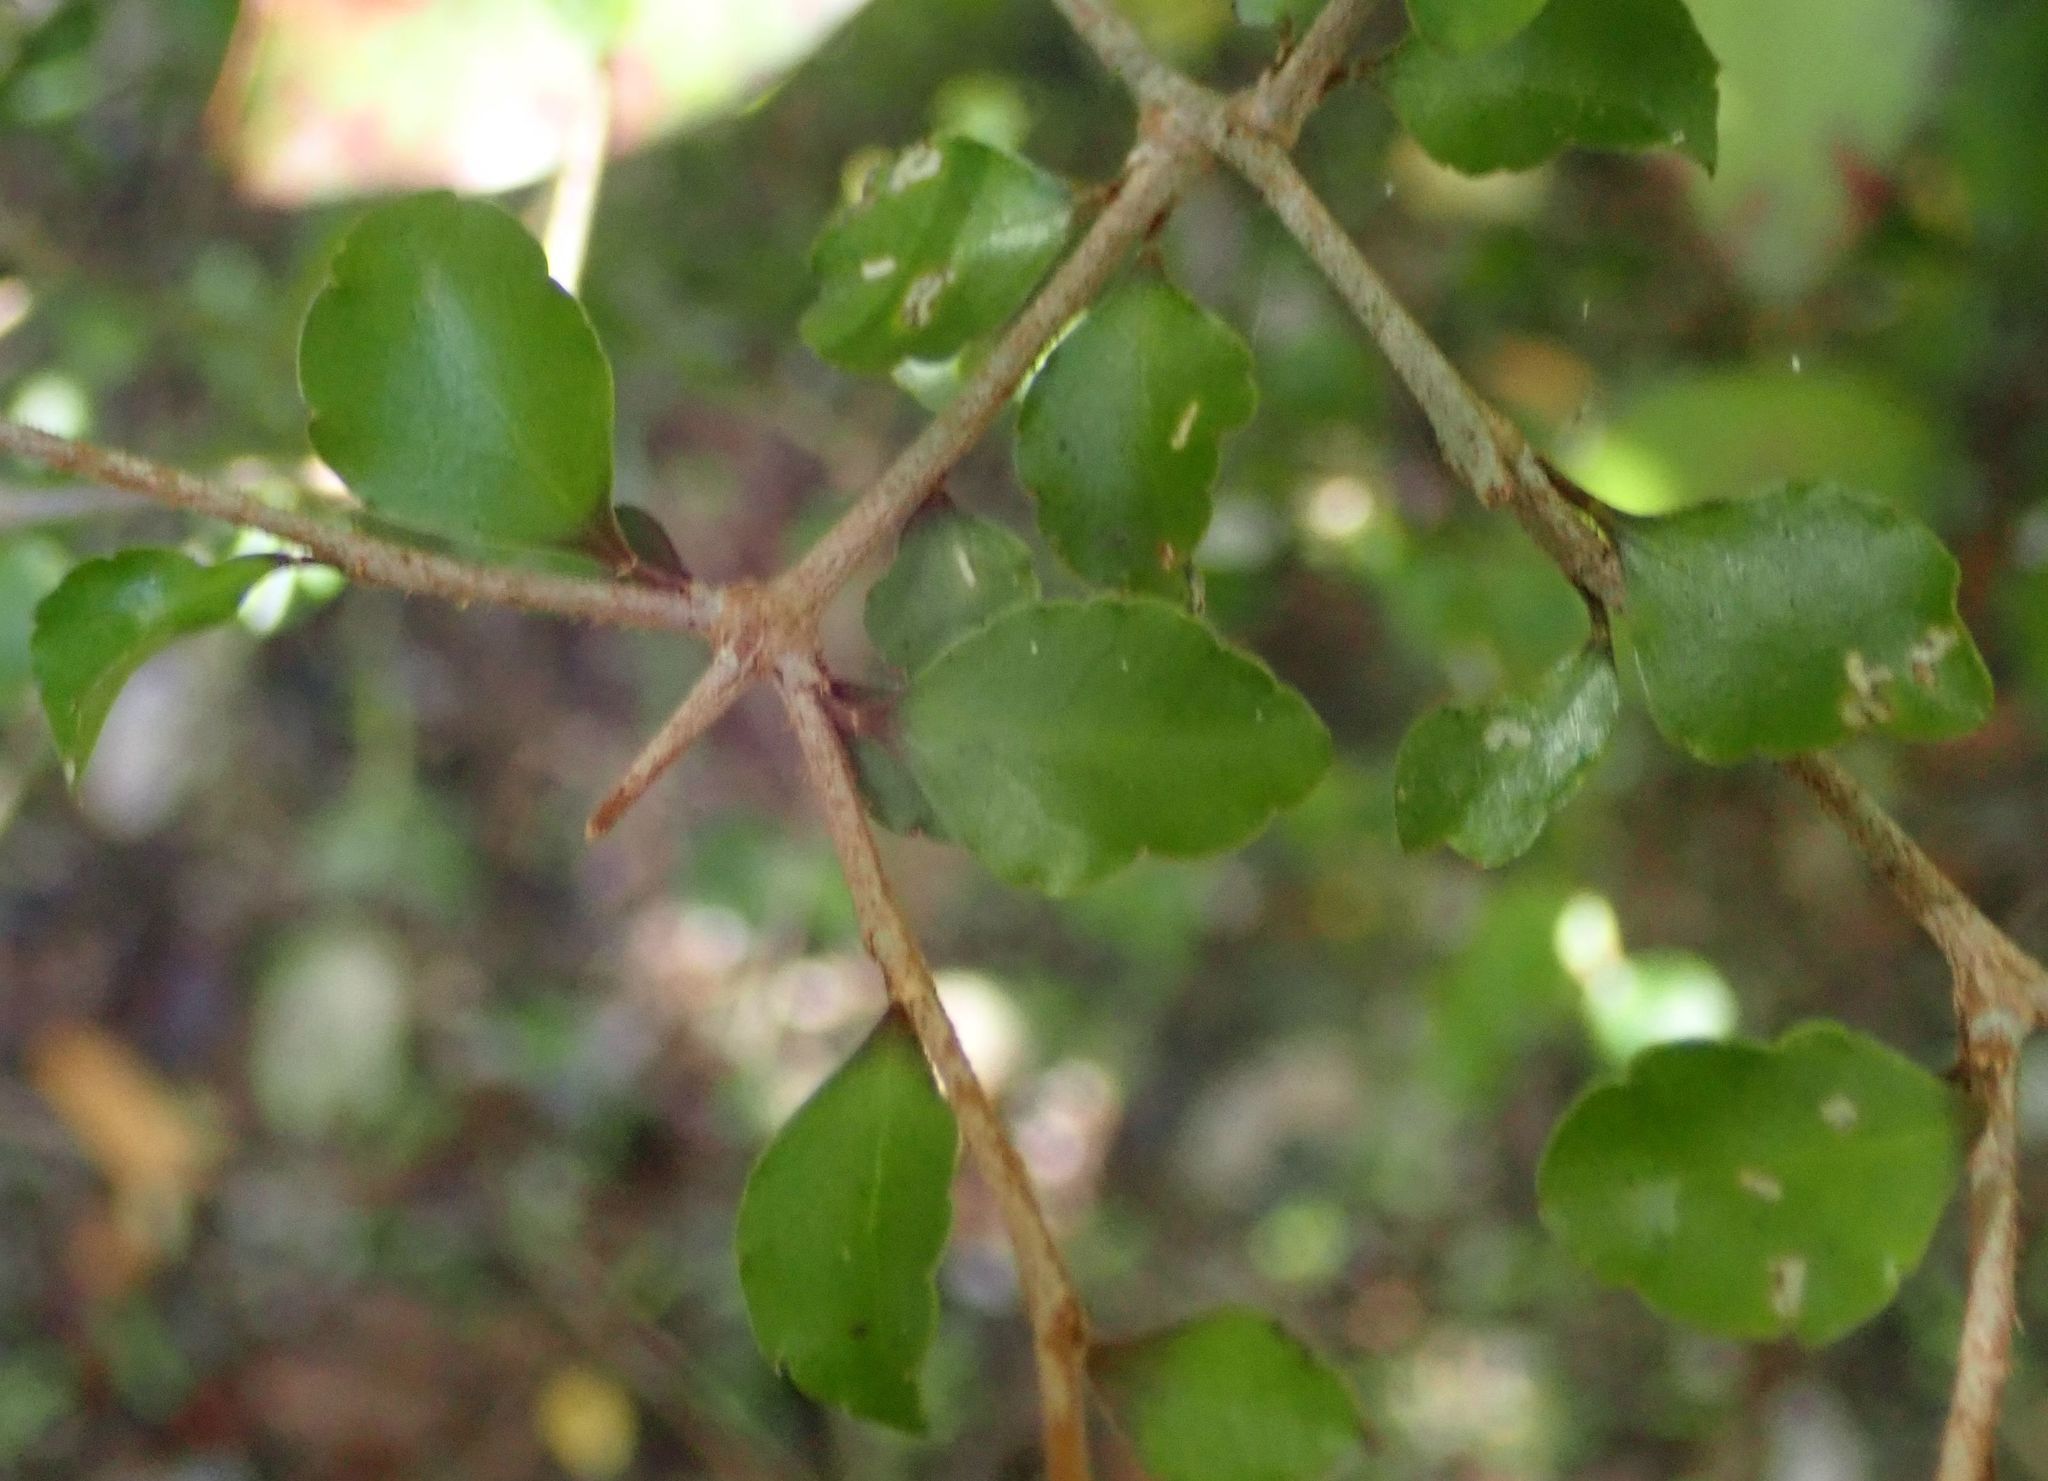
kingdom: Plantae
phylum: Tracheophyta
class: Magnoliopsida
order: Apiales
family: Araliaceae
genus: Raukaua
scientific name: Raukaua anomalus
